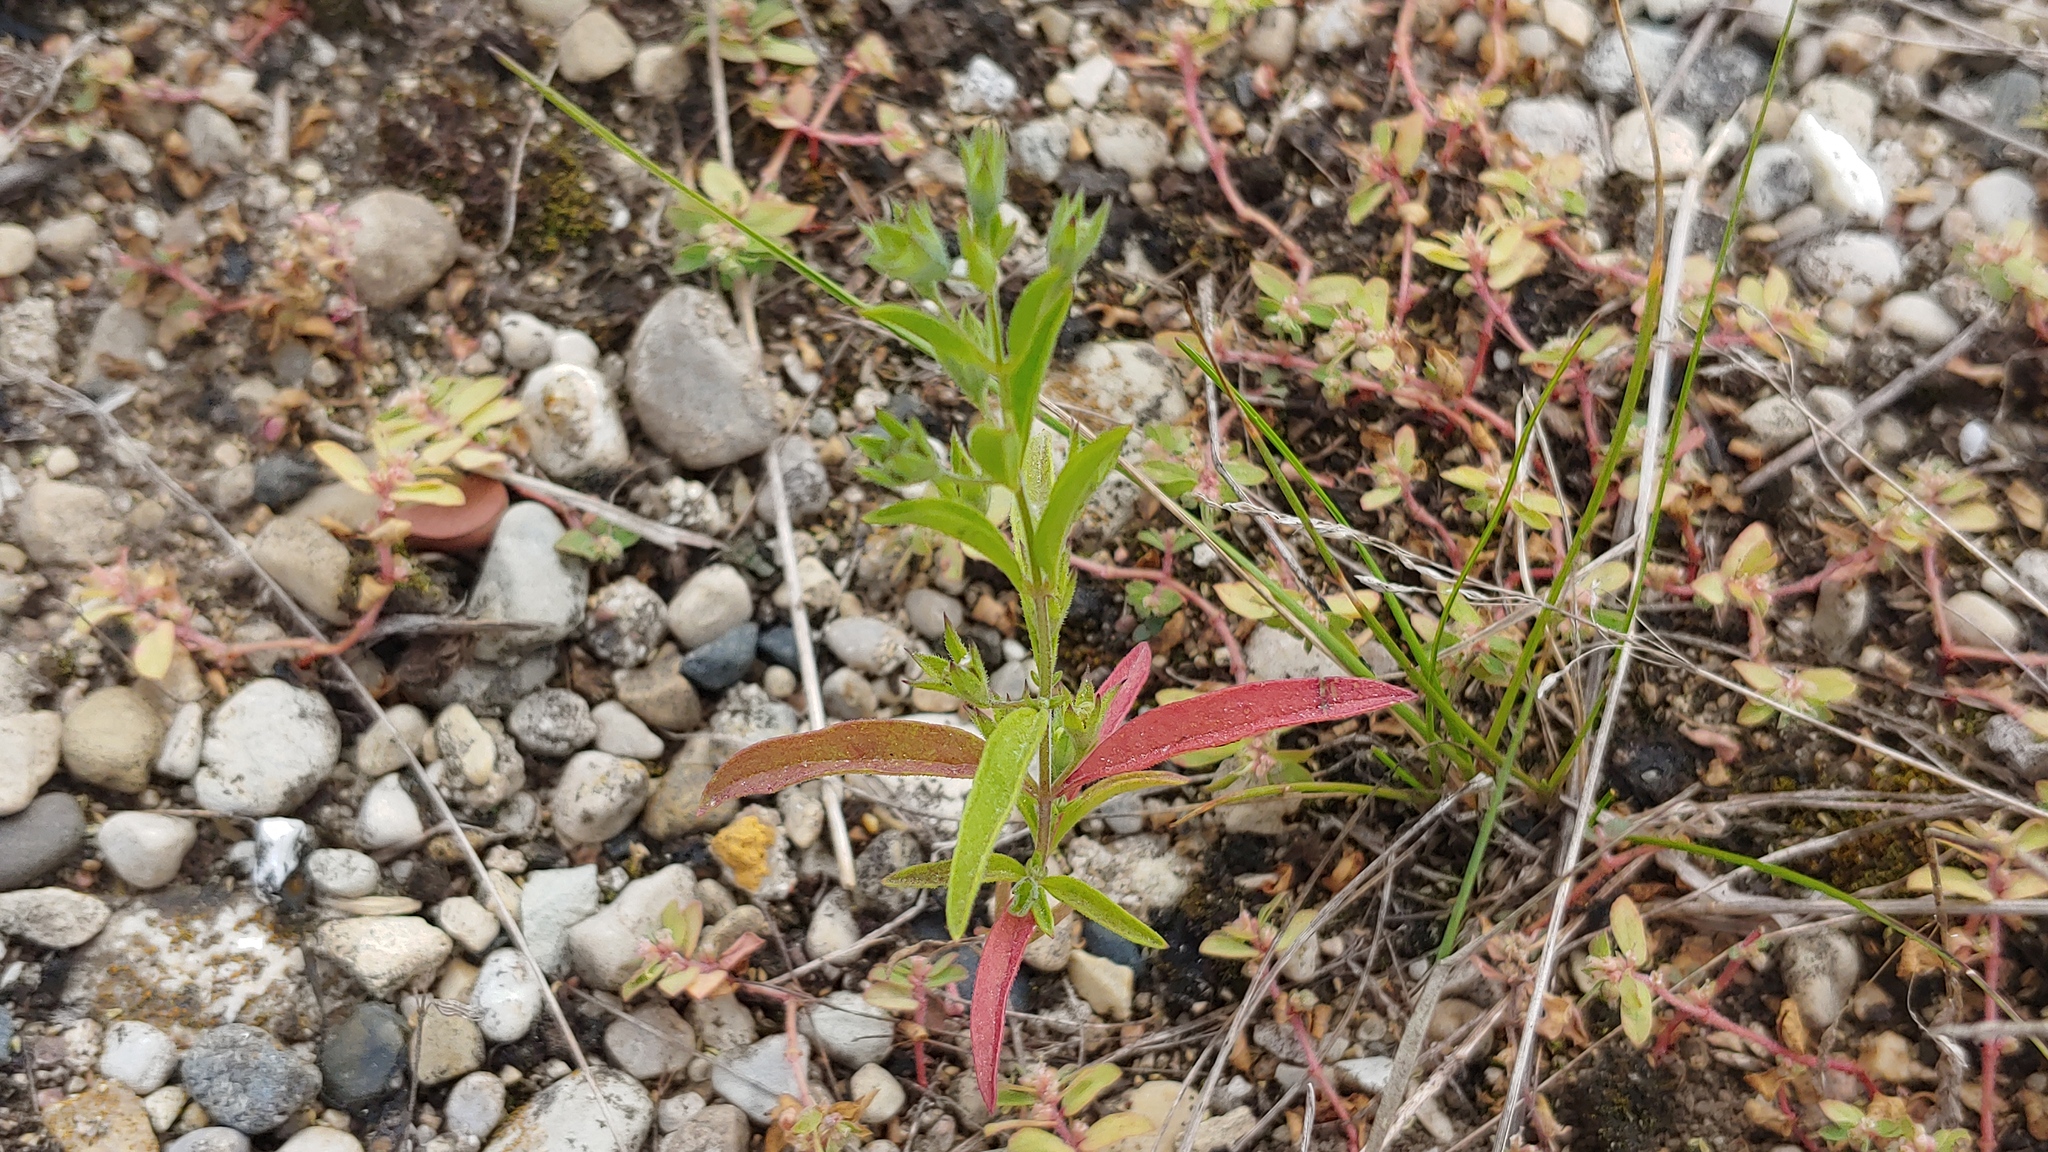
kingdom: Plantae
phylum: Tracheophyta
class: Magnoliopsida
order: Lamiales
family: Lamiaceae
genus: Trichostema
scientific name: Trichostema brachiatum
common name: False pennyroyal
